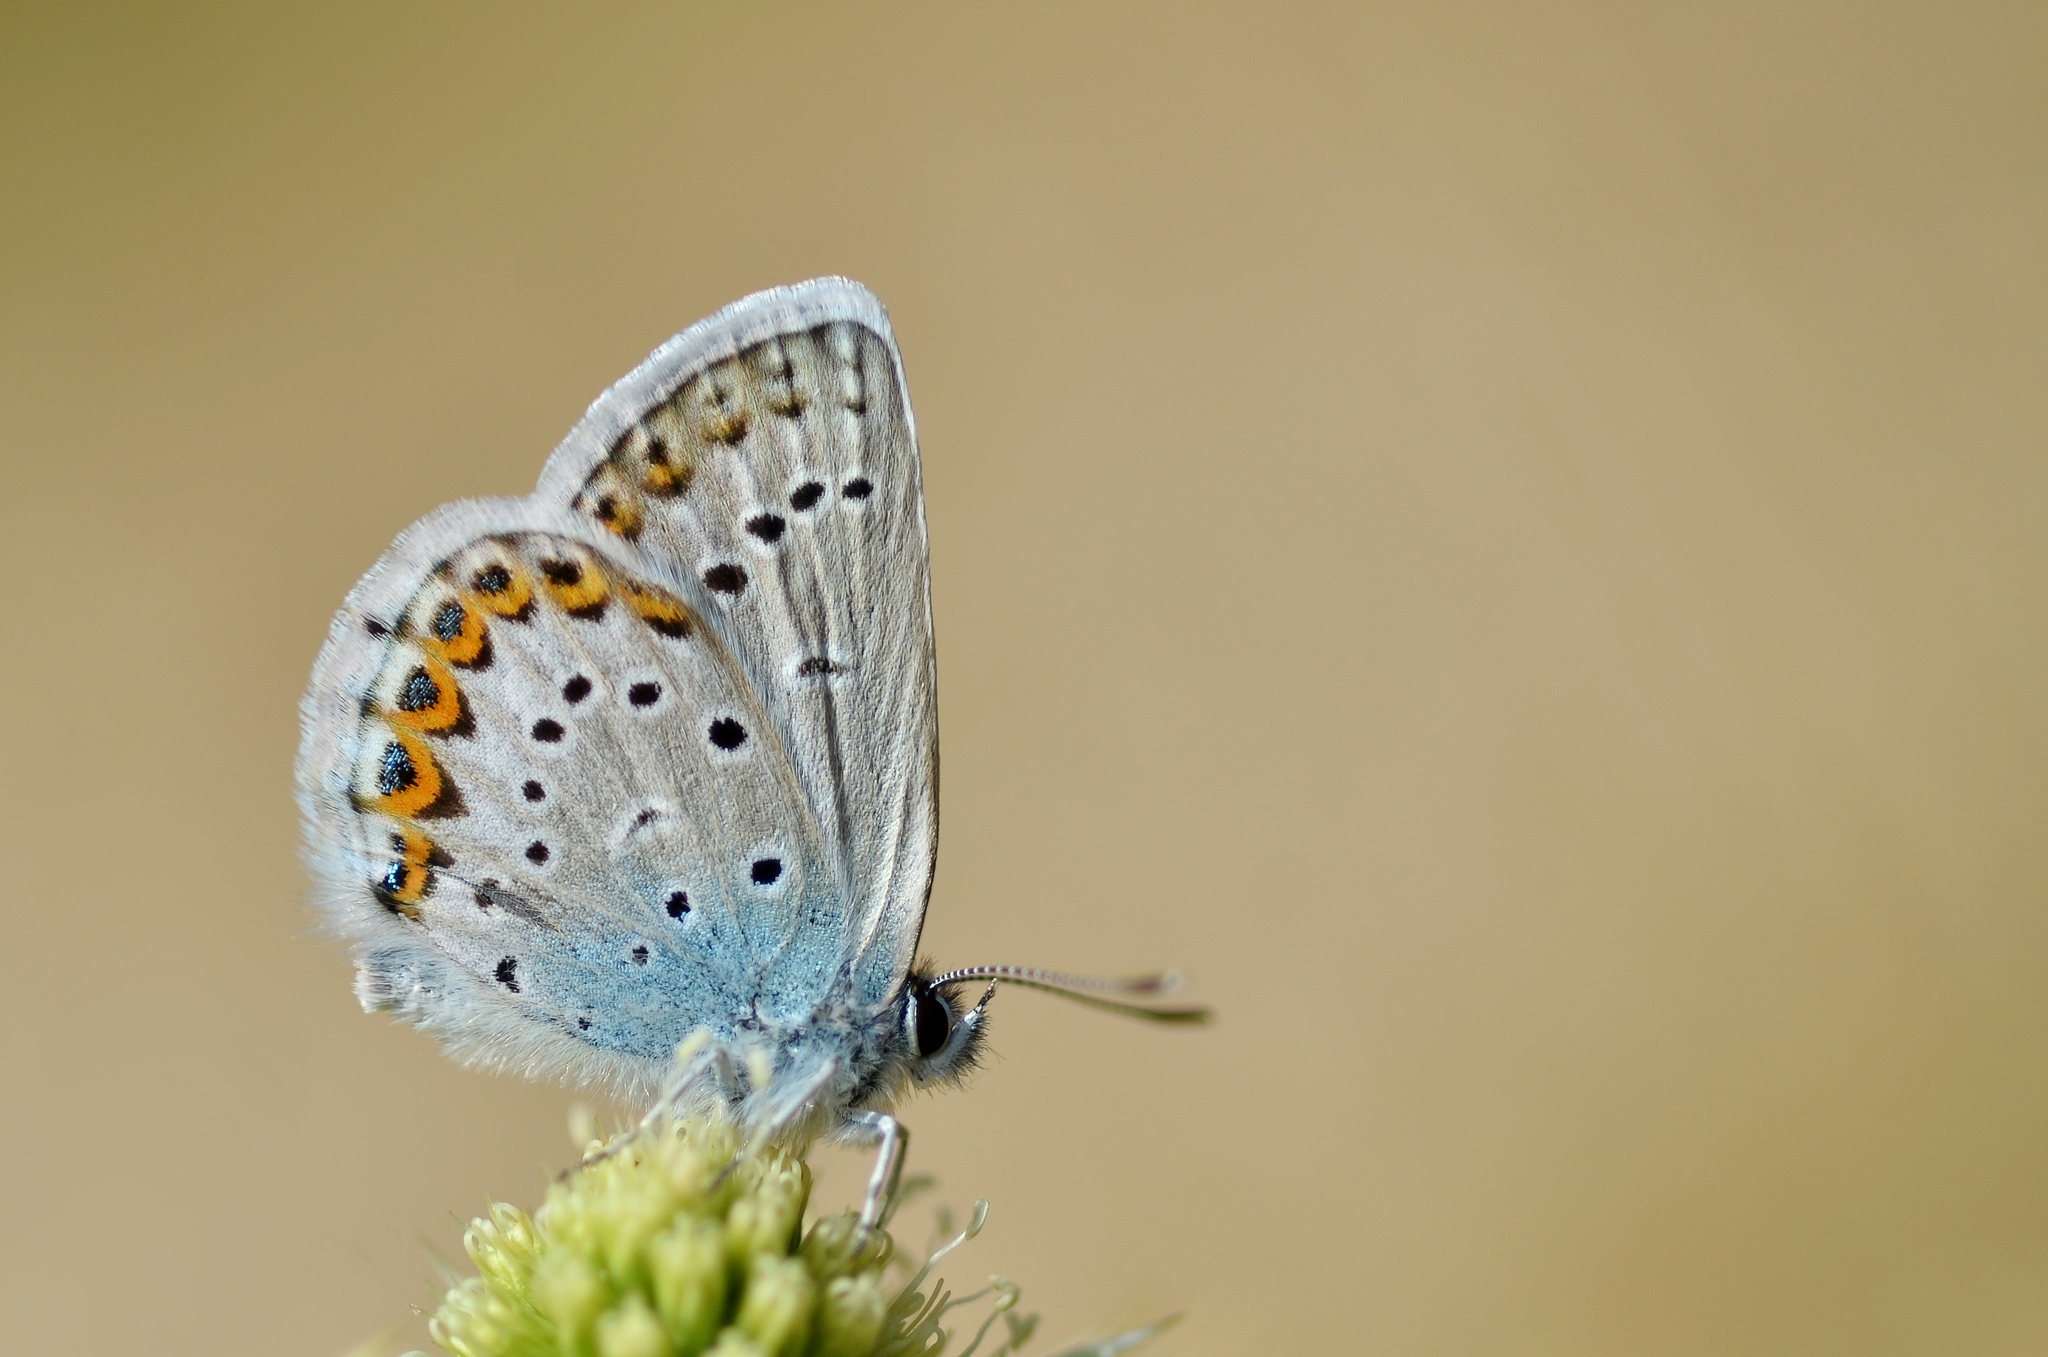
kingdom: Animalia
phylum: Arthropoda
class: Insecta
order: Lepidoptera
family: Lycaenidae
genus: Lycaeides
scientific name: Lycaeides idas
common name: Northern blue
